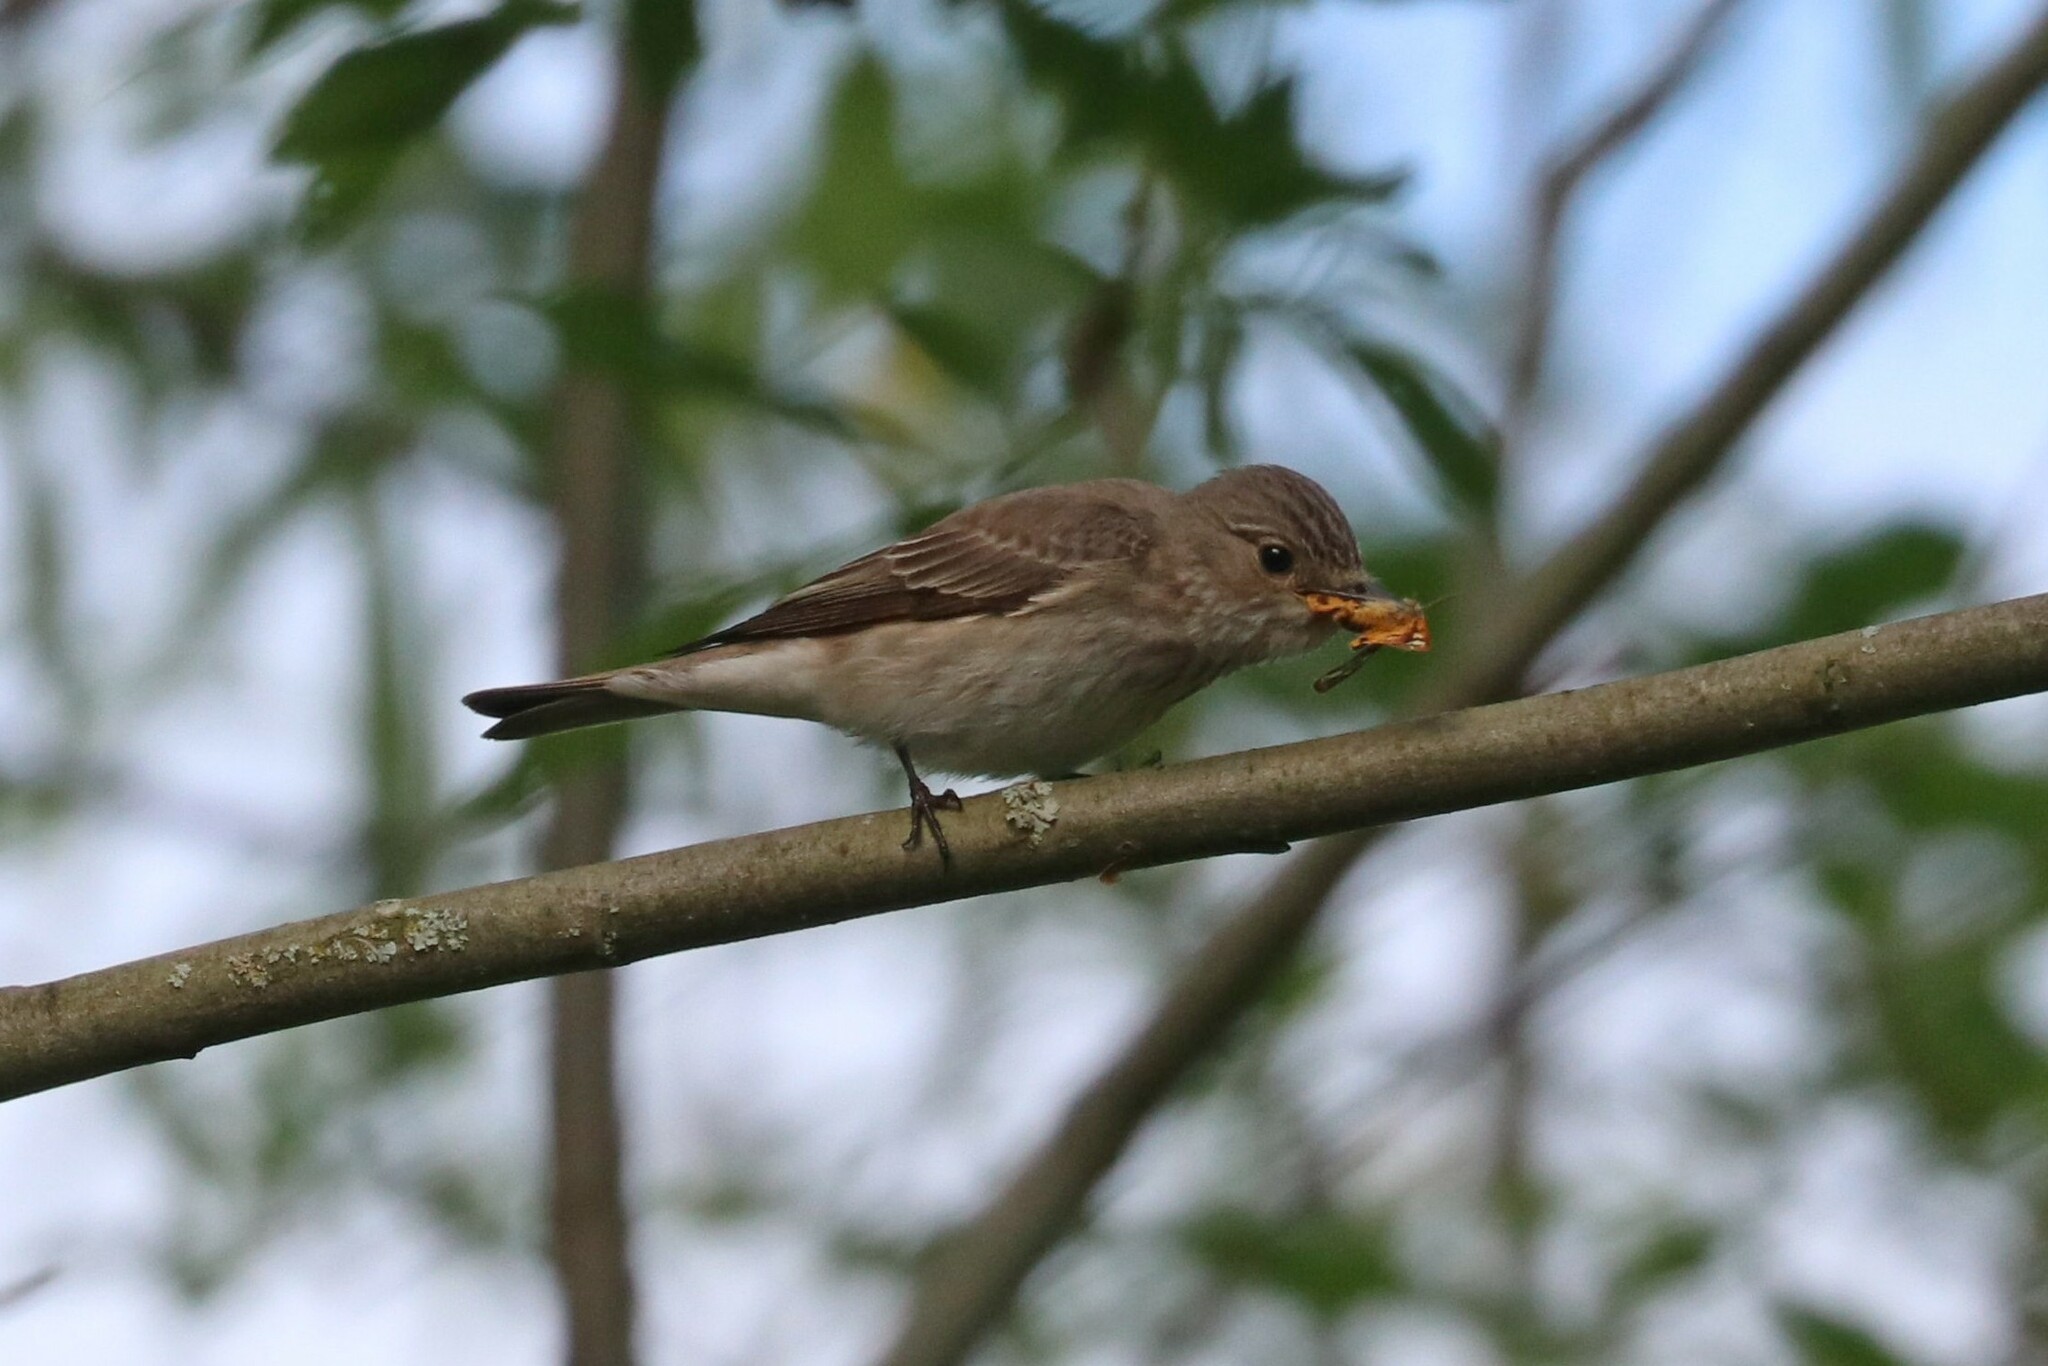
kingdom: Animalia
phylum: Chordata
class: Aves
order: Passeriformes
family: Muscicapidae
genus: Muscicapa
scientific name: Muscicapa striata
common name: Spotted flycatcher
